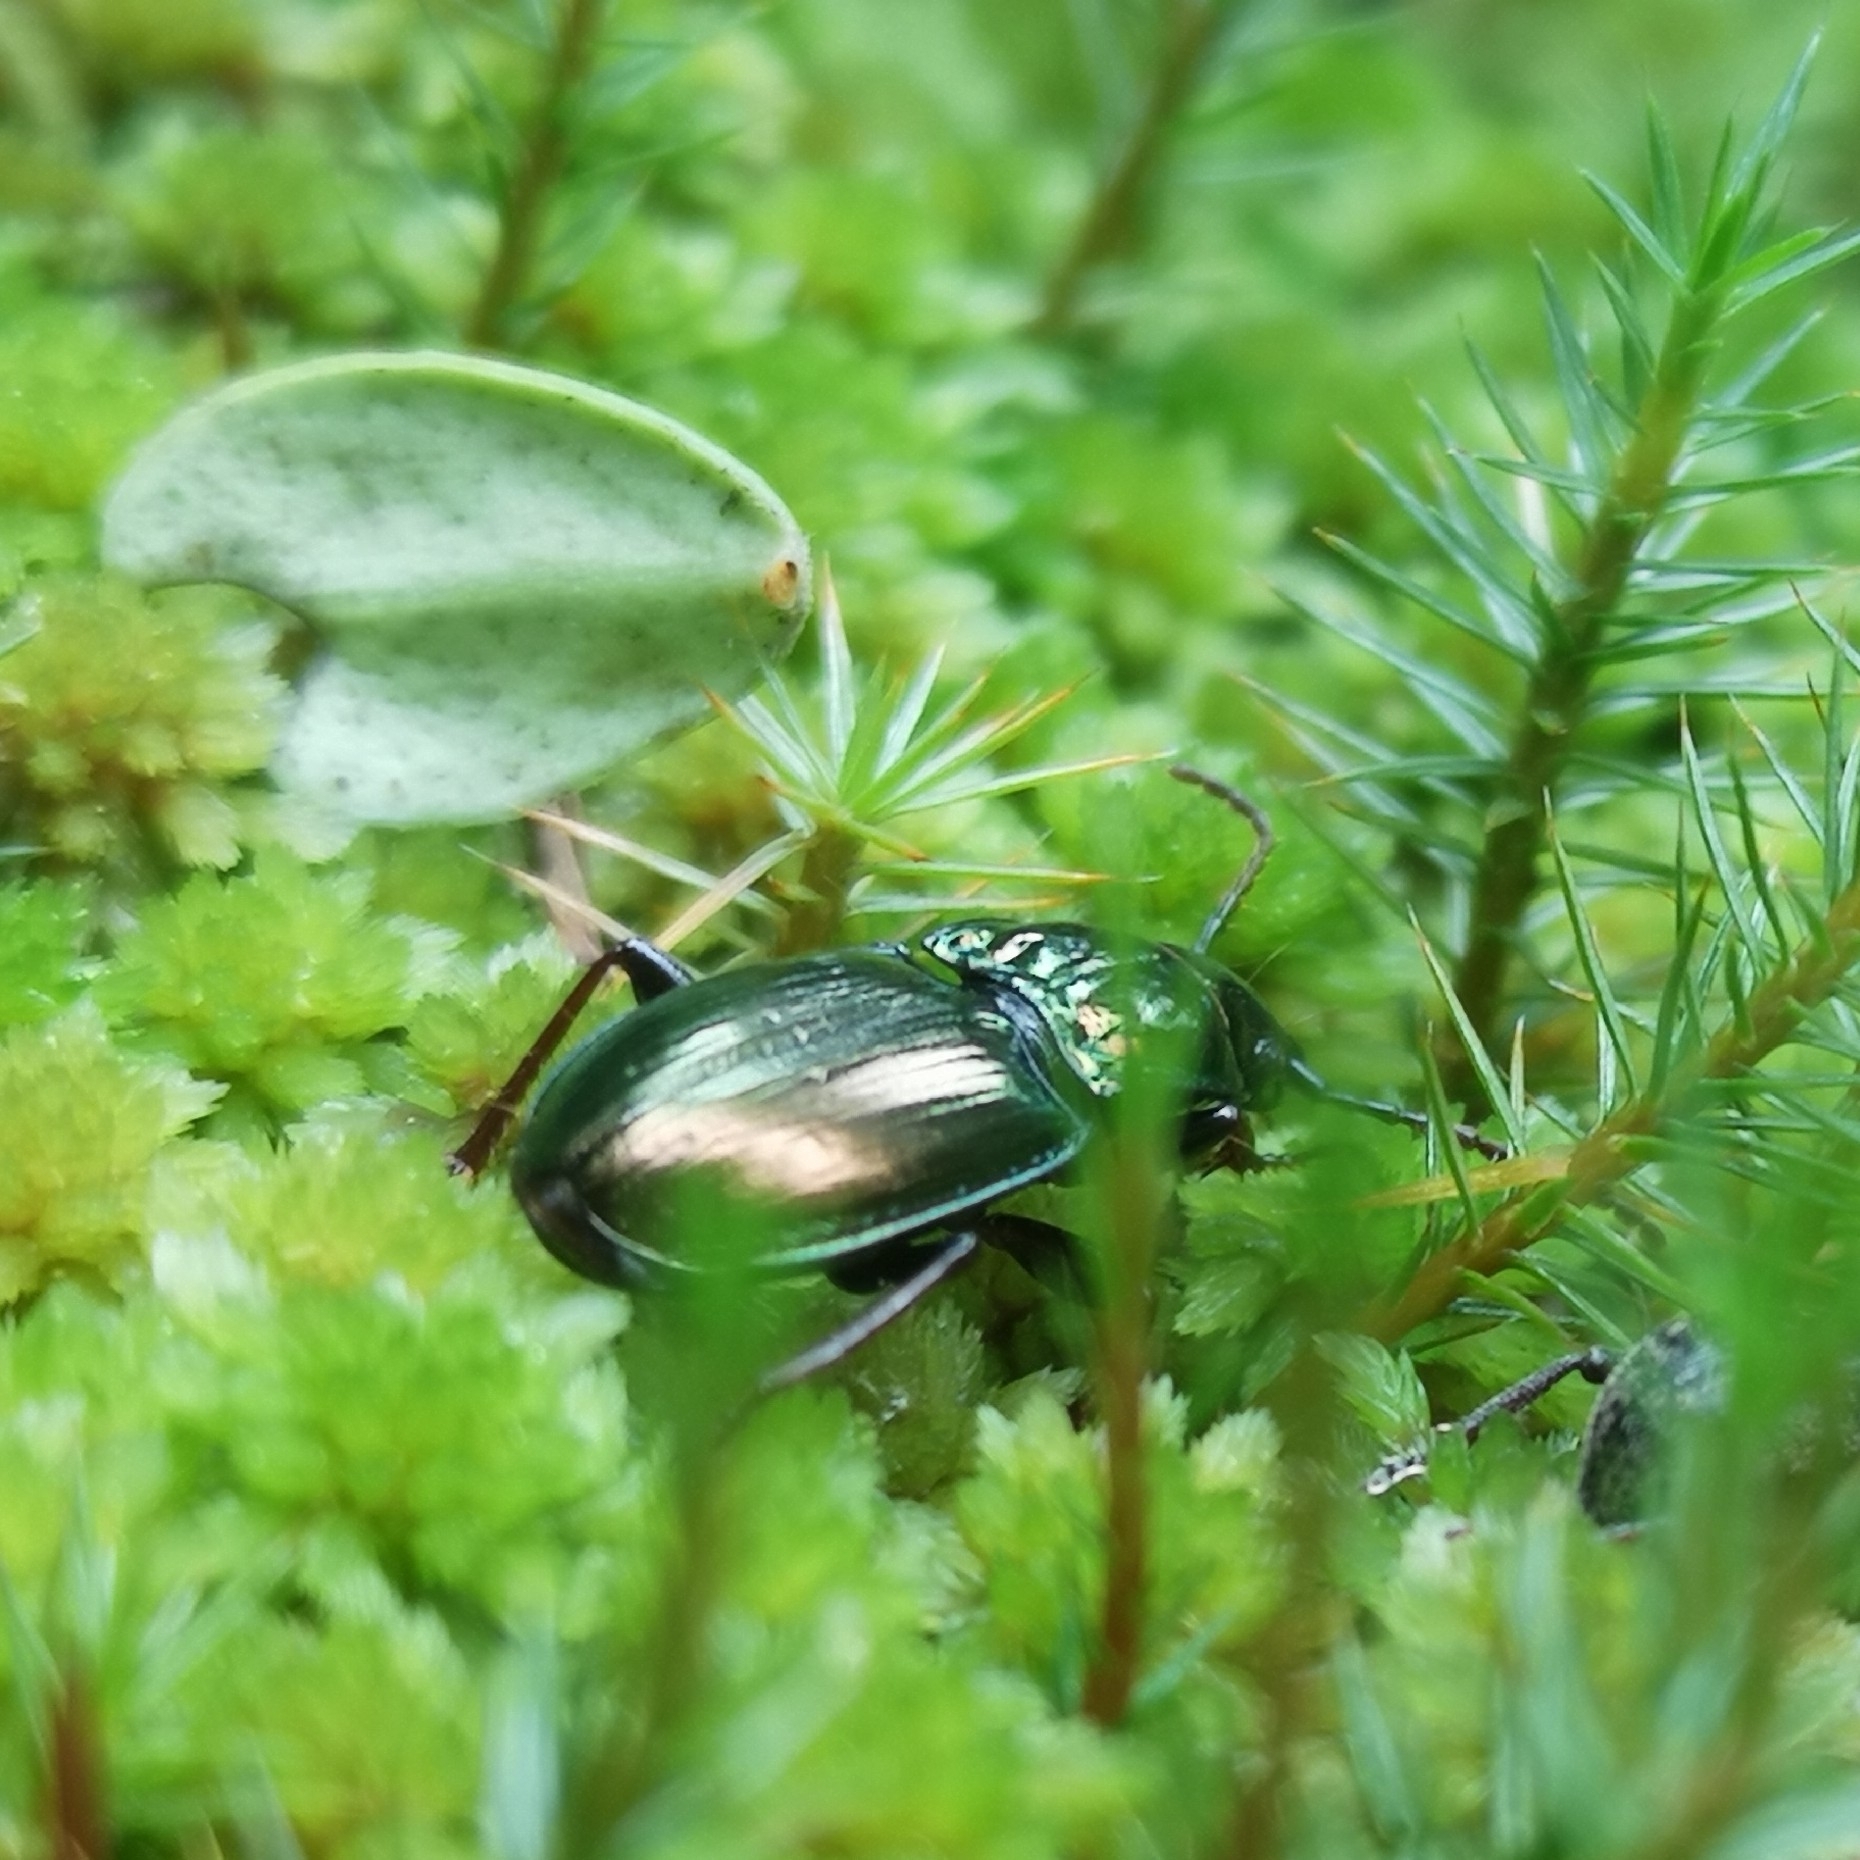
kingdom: Animalia
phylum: Arthropoda
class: Insecta
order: Coleoptera
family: Carabidae
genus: Pterostichus
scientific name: Pterostichus burmeisteri
